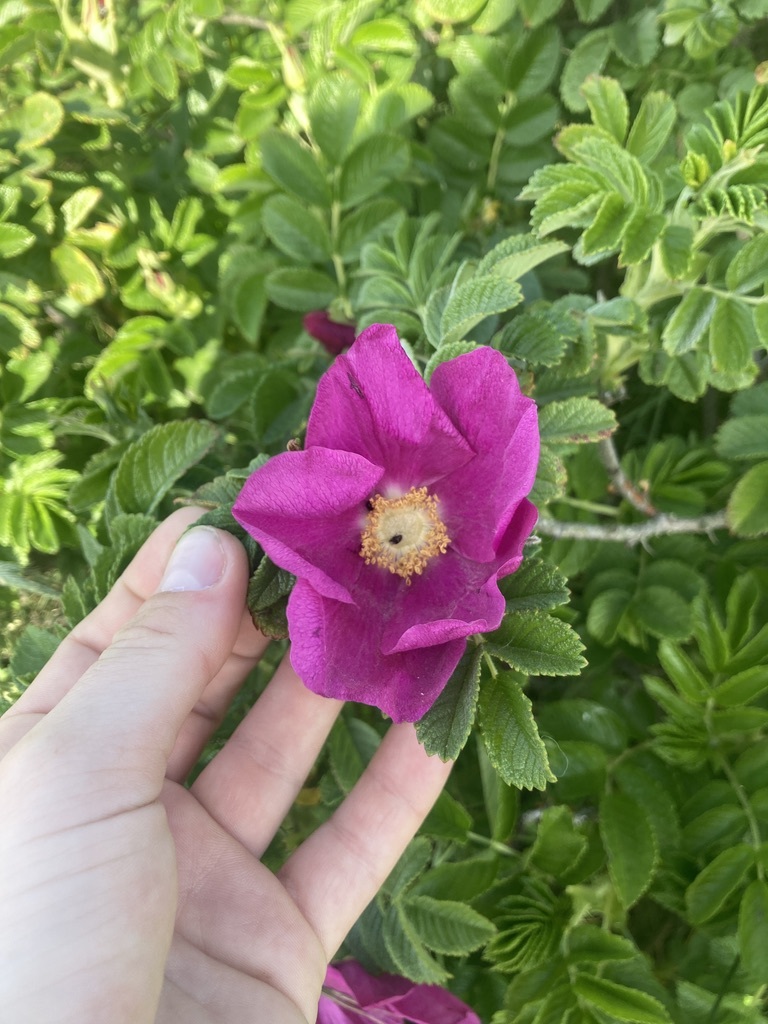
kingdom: Plantae
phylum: Tracheophyta
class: Magnoliopsida
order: Rosales
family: Rosaceae
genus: Rosa
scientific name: Rosa rugosa
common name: Japanese rose
